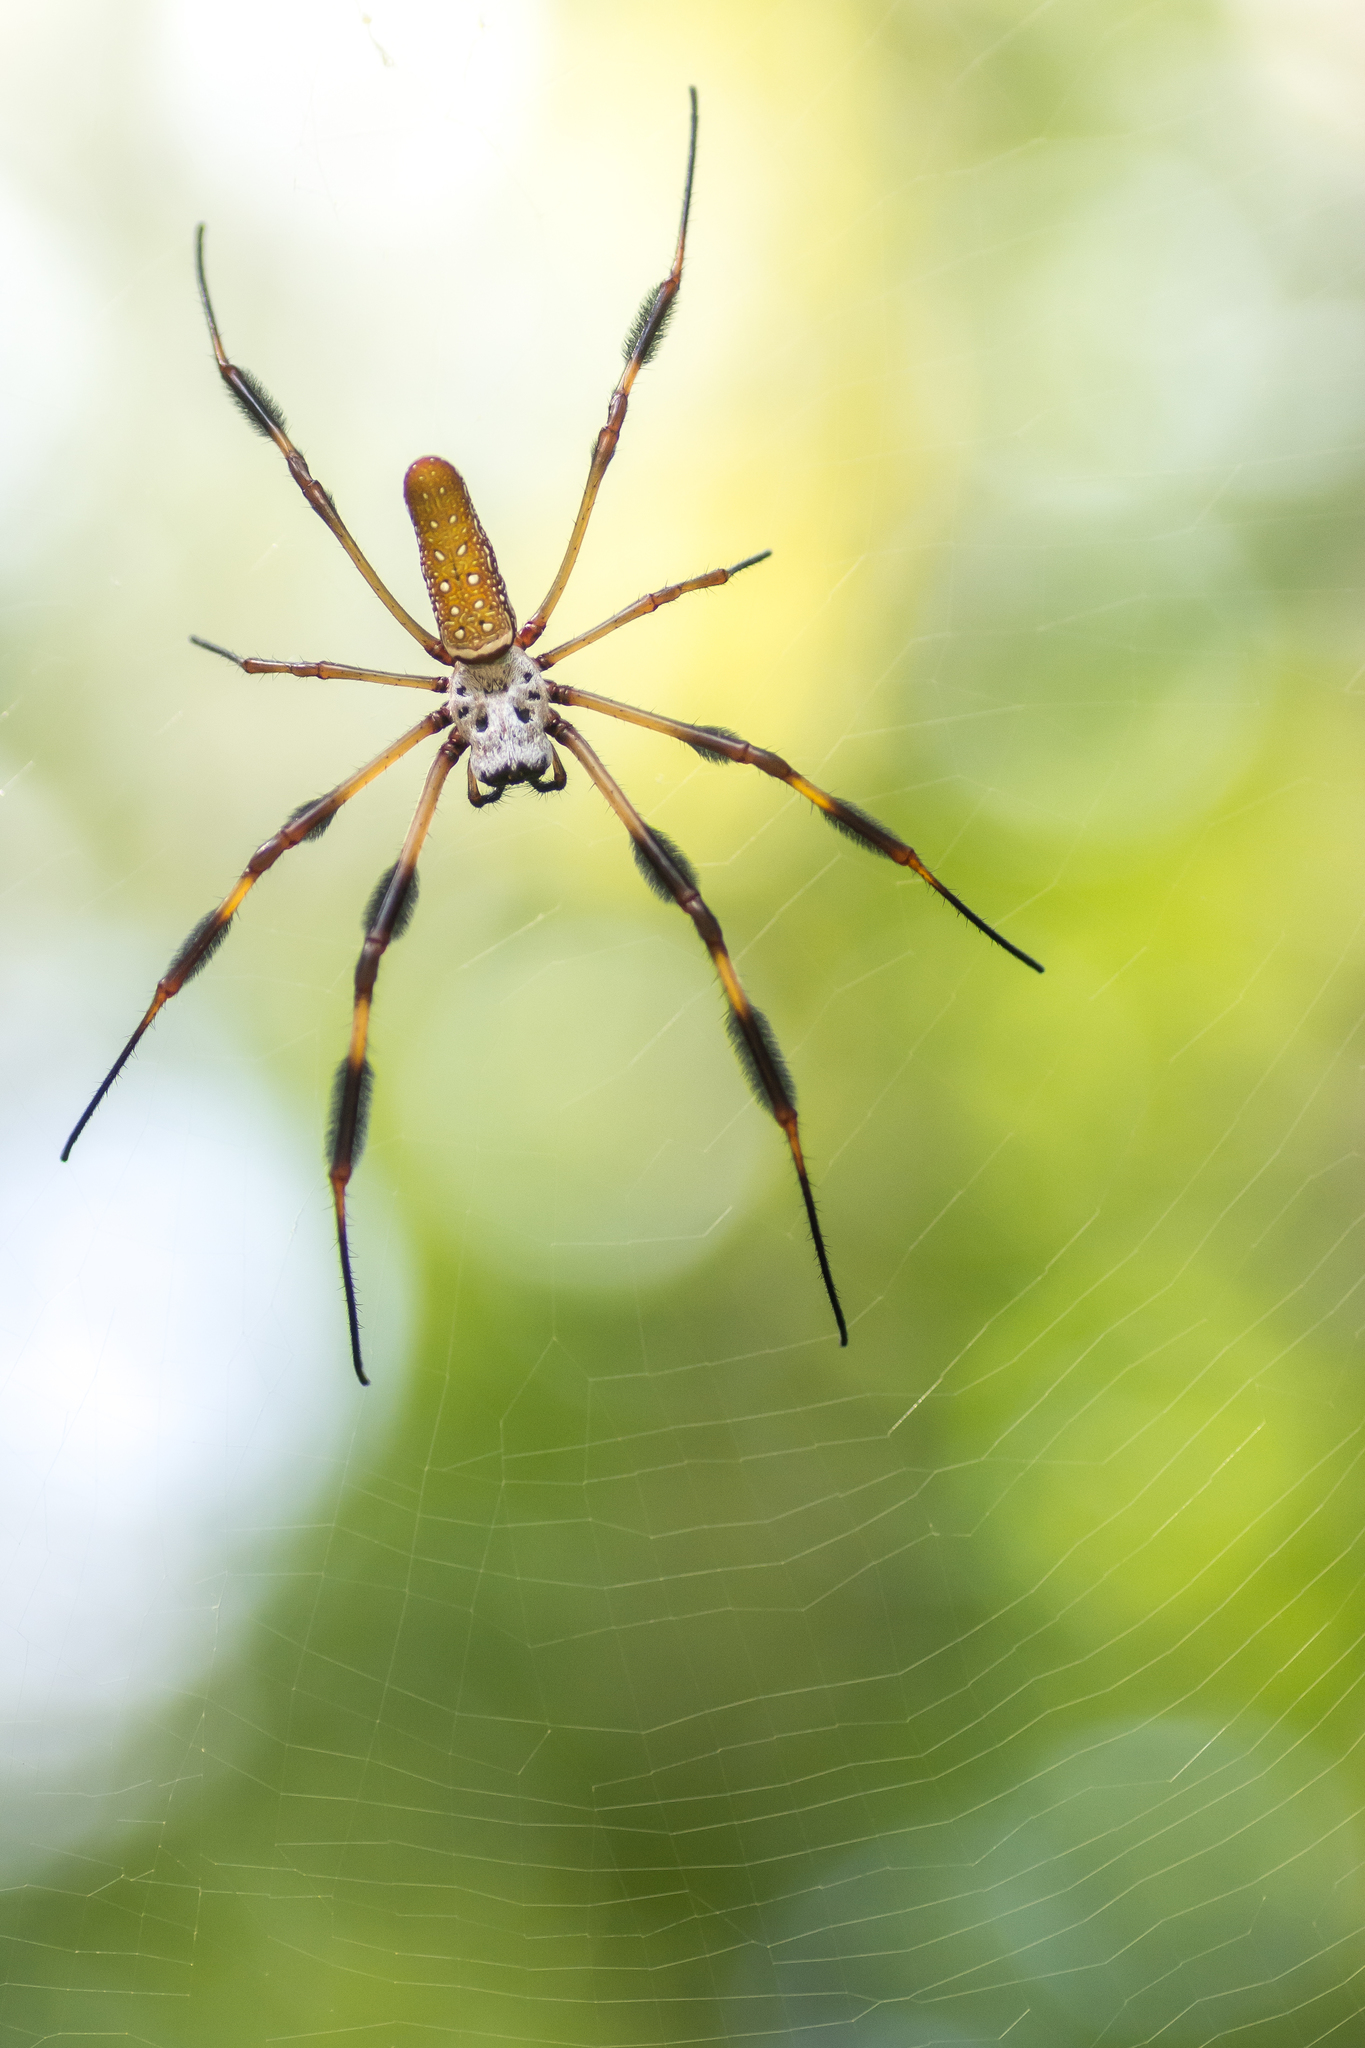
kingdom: Animalia
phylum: Arthropoda
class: Arachnida
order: Araneae
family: Araneidae
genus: Trichonephila
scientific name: Trichonephila clavipes
